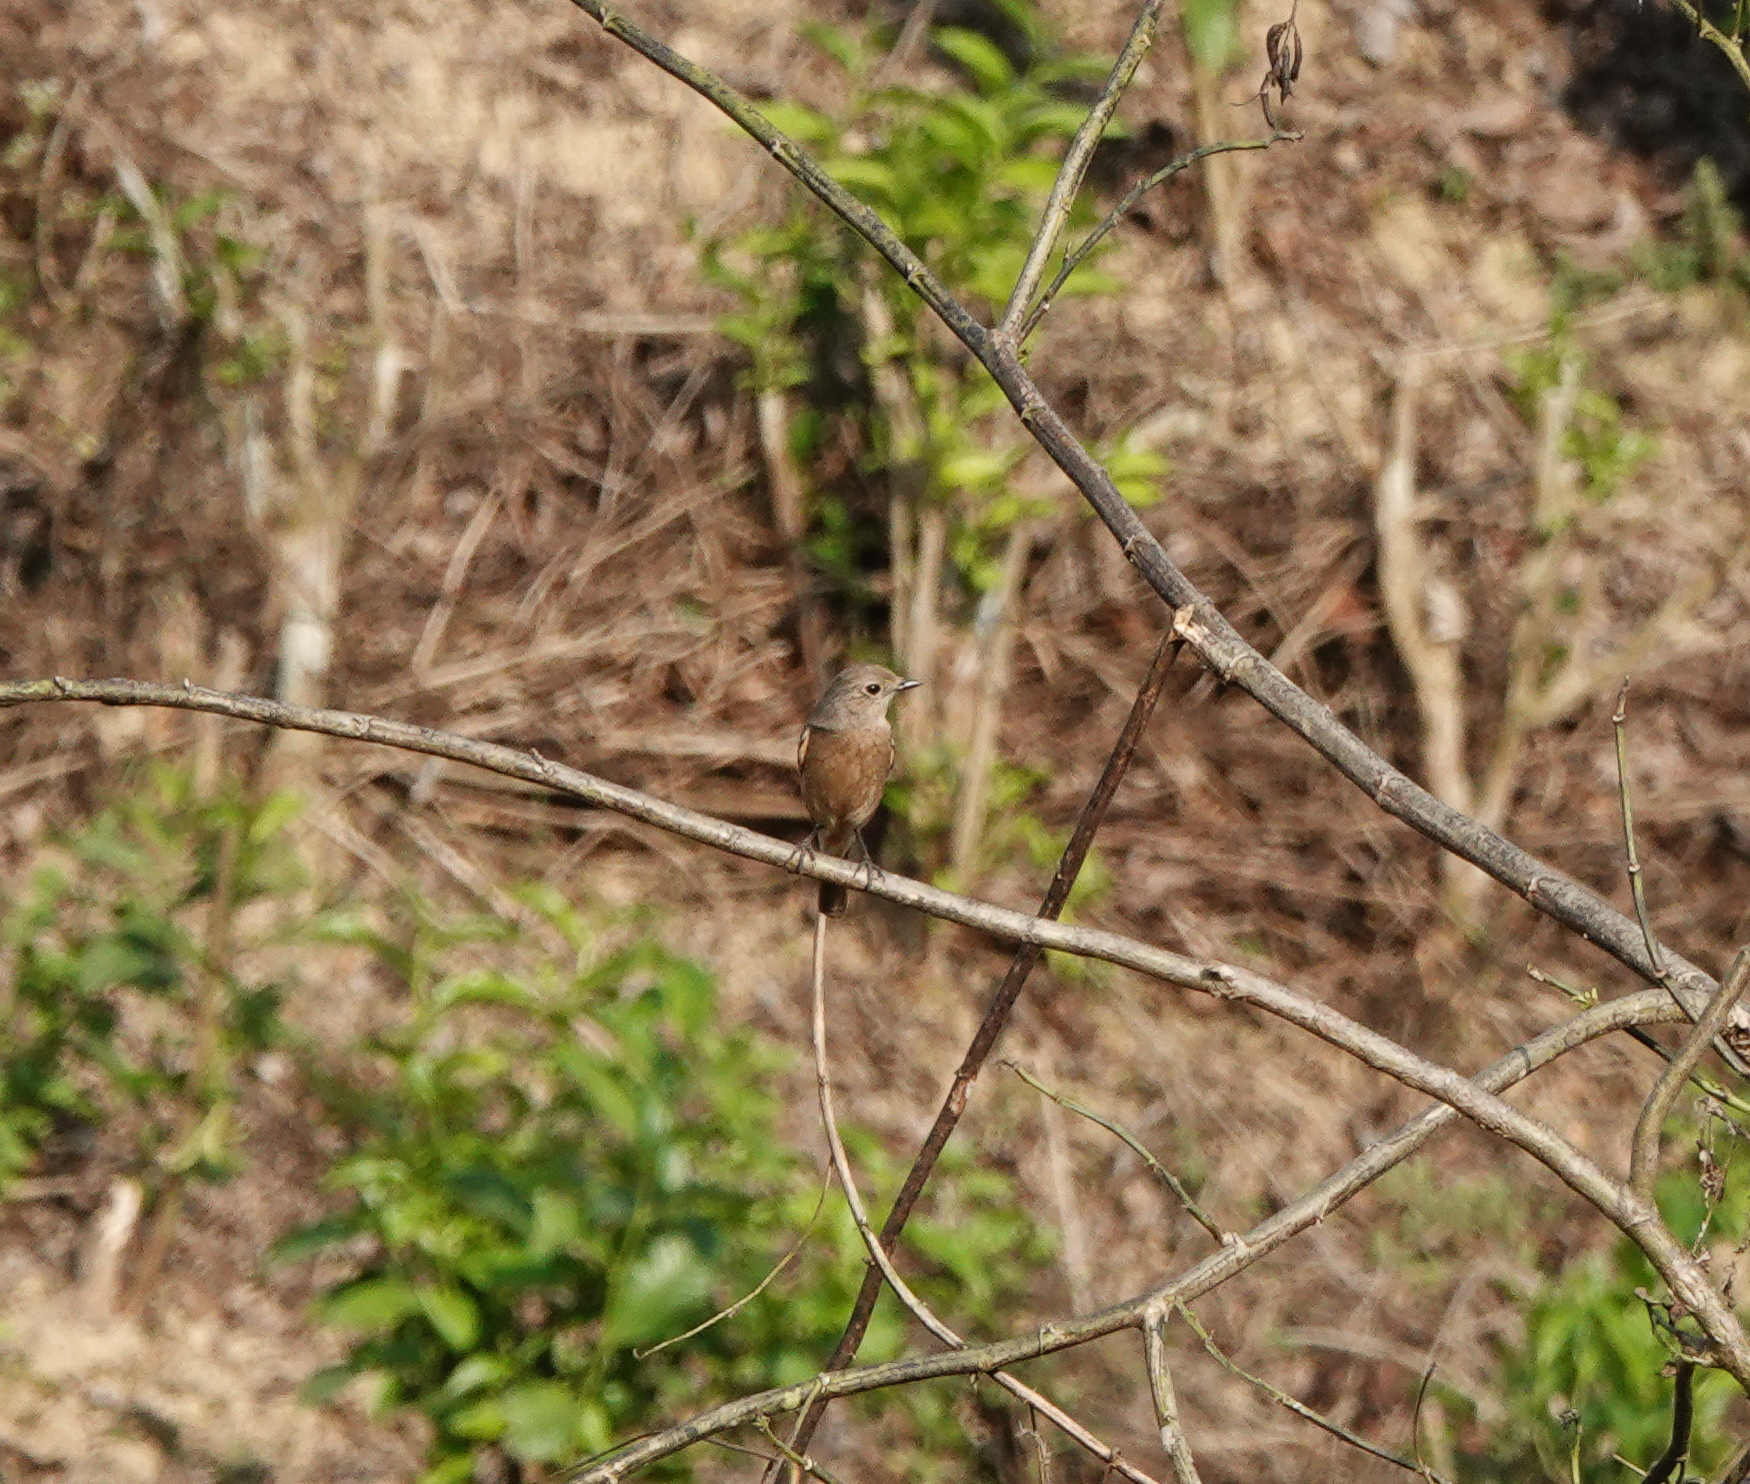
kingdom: Animalia
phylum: Chordata
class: Aves
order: Passeriformes
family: Muscicapidae
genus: Saxicola
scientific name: Saxicola caprata
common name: Pied bush chat
